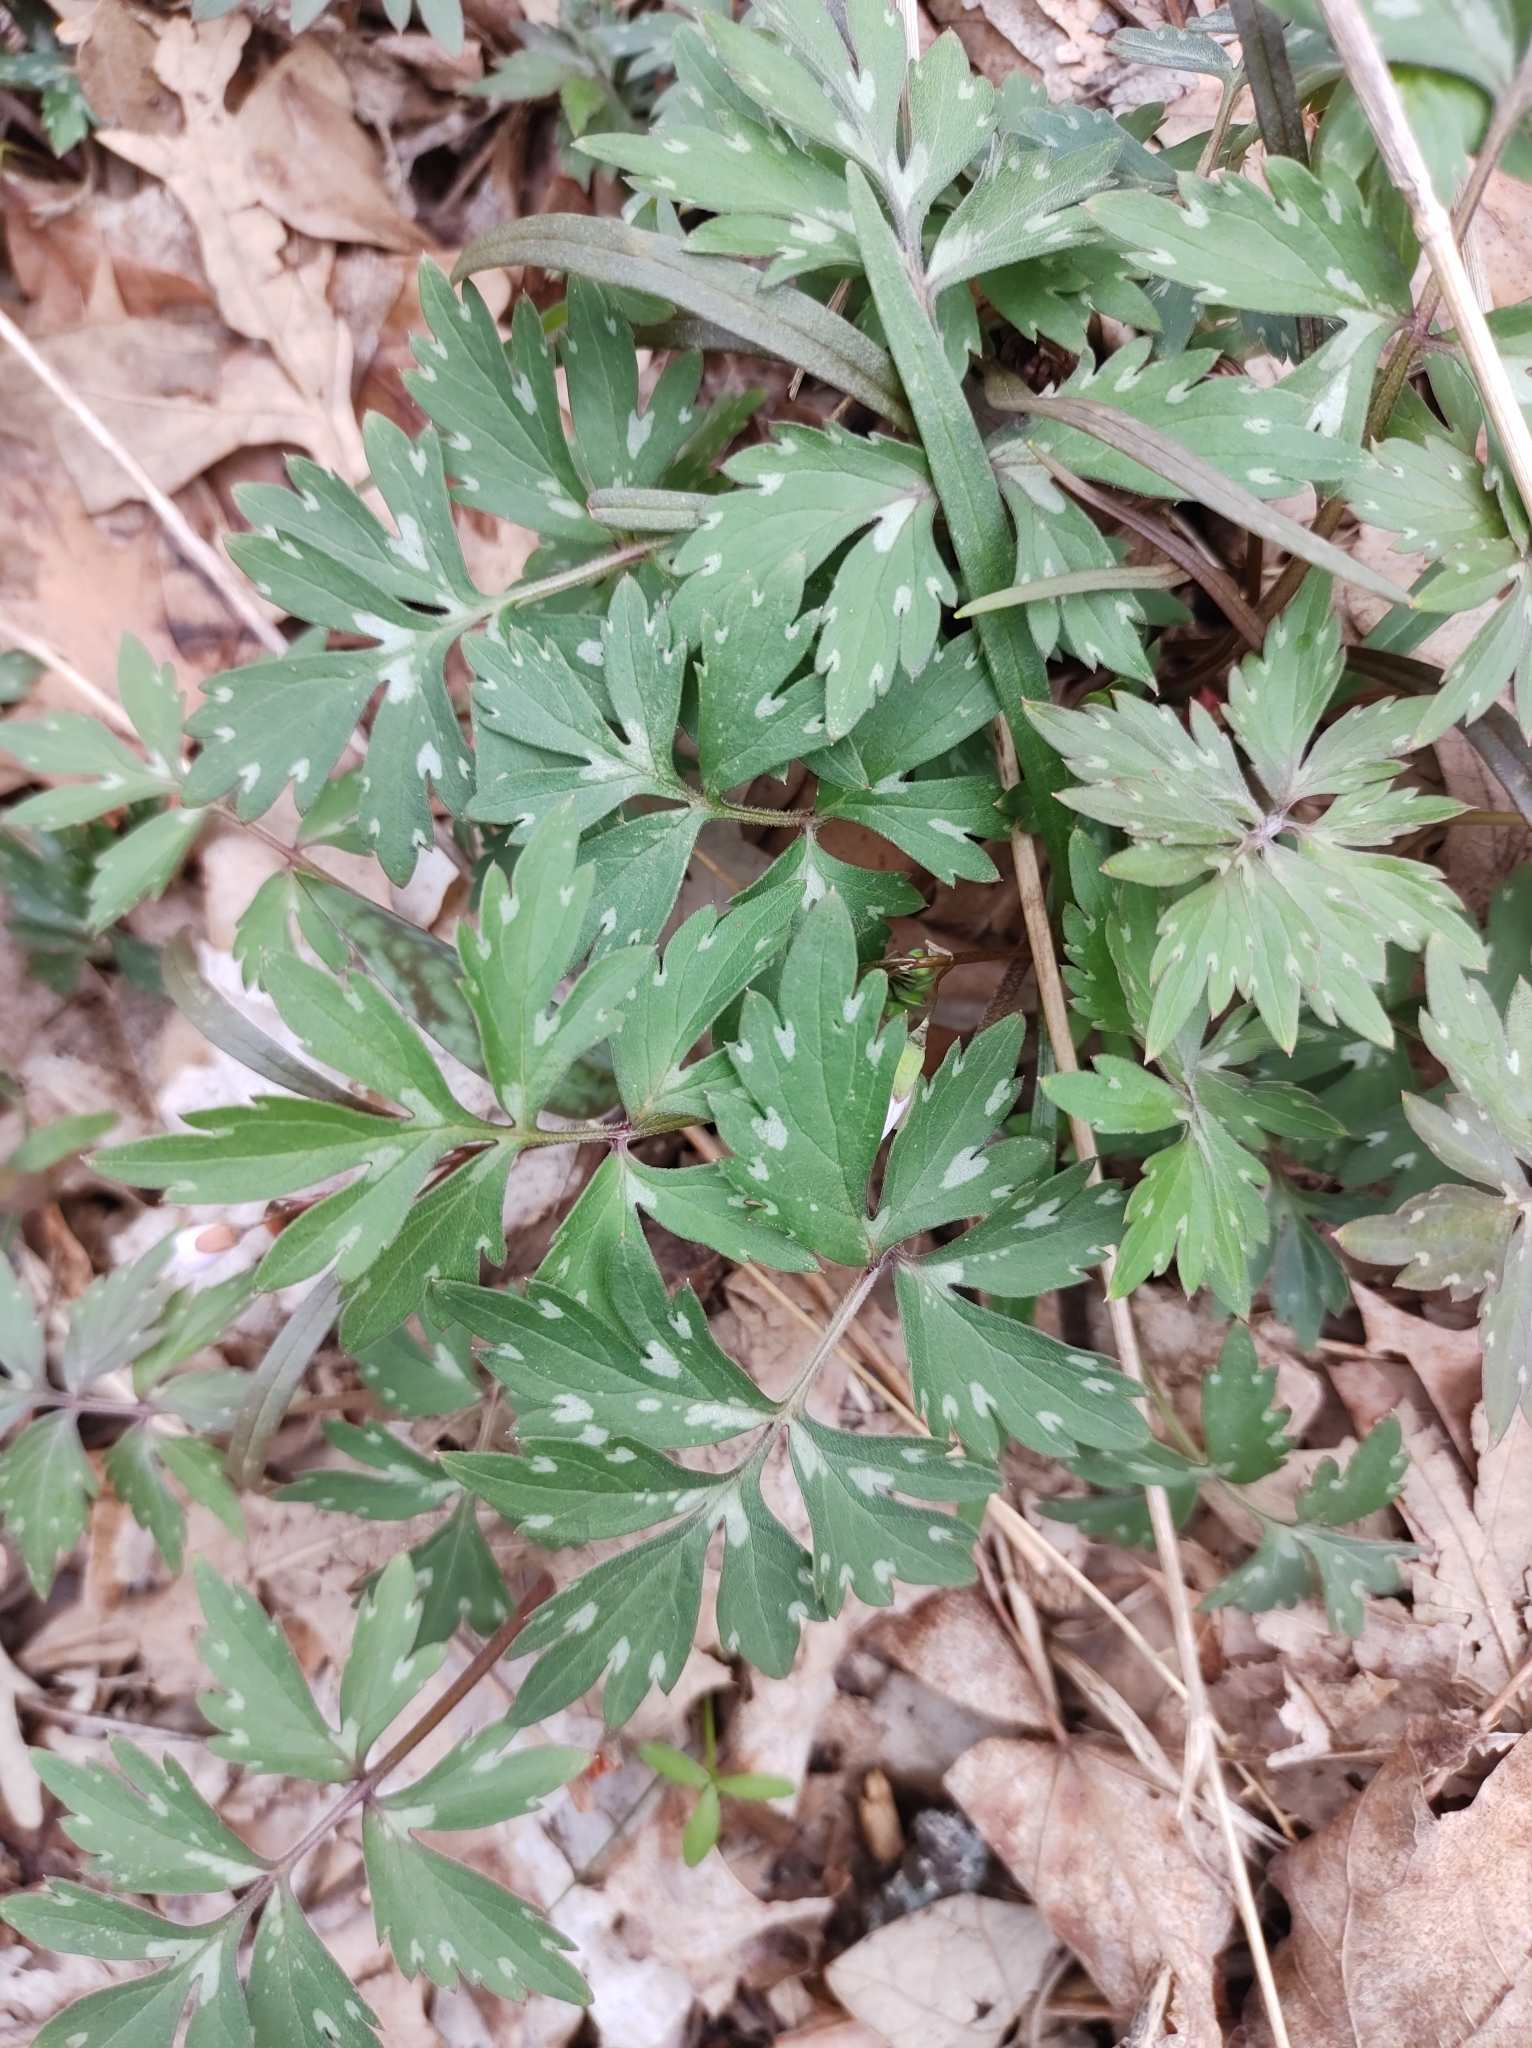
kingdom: Plantae
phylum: Tracheophyta
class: Magnoliopsida
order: Boraginales
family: Hydrophyllaceae
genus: Hydrophyllum
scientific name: Hydrophyllum virginianum
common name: Virginia waterleaf
